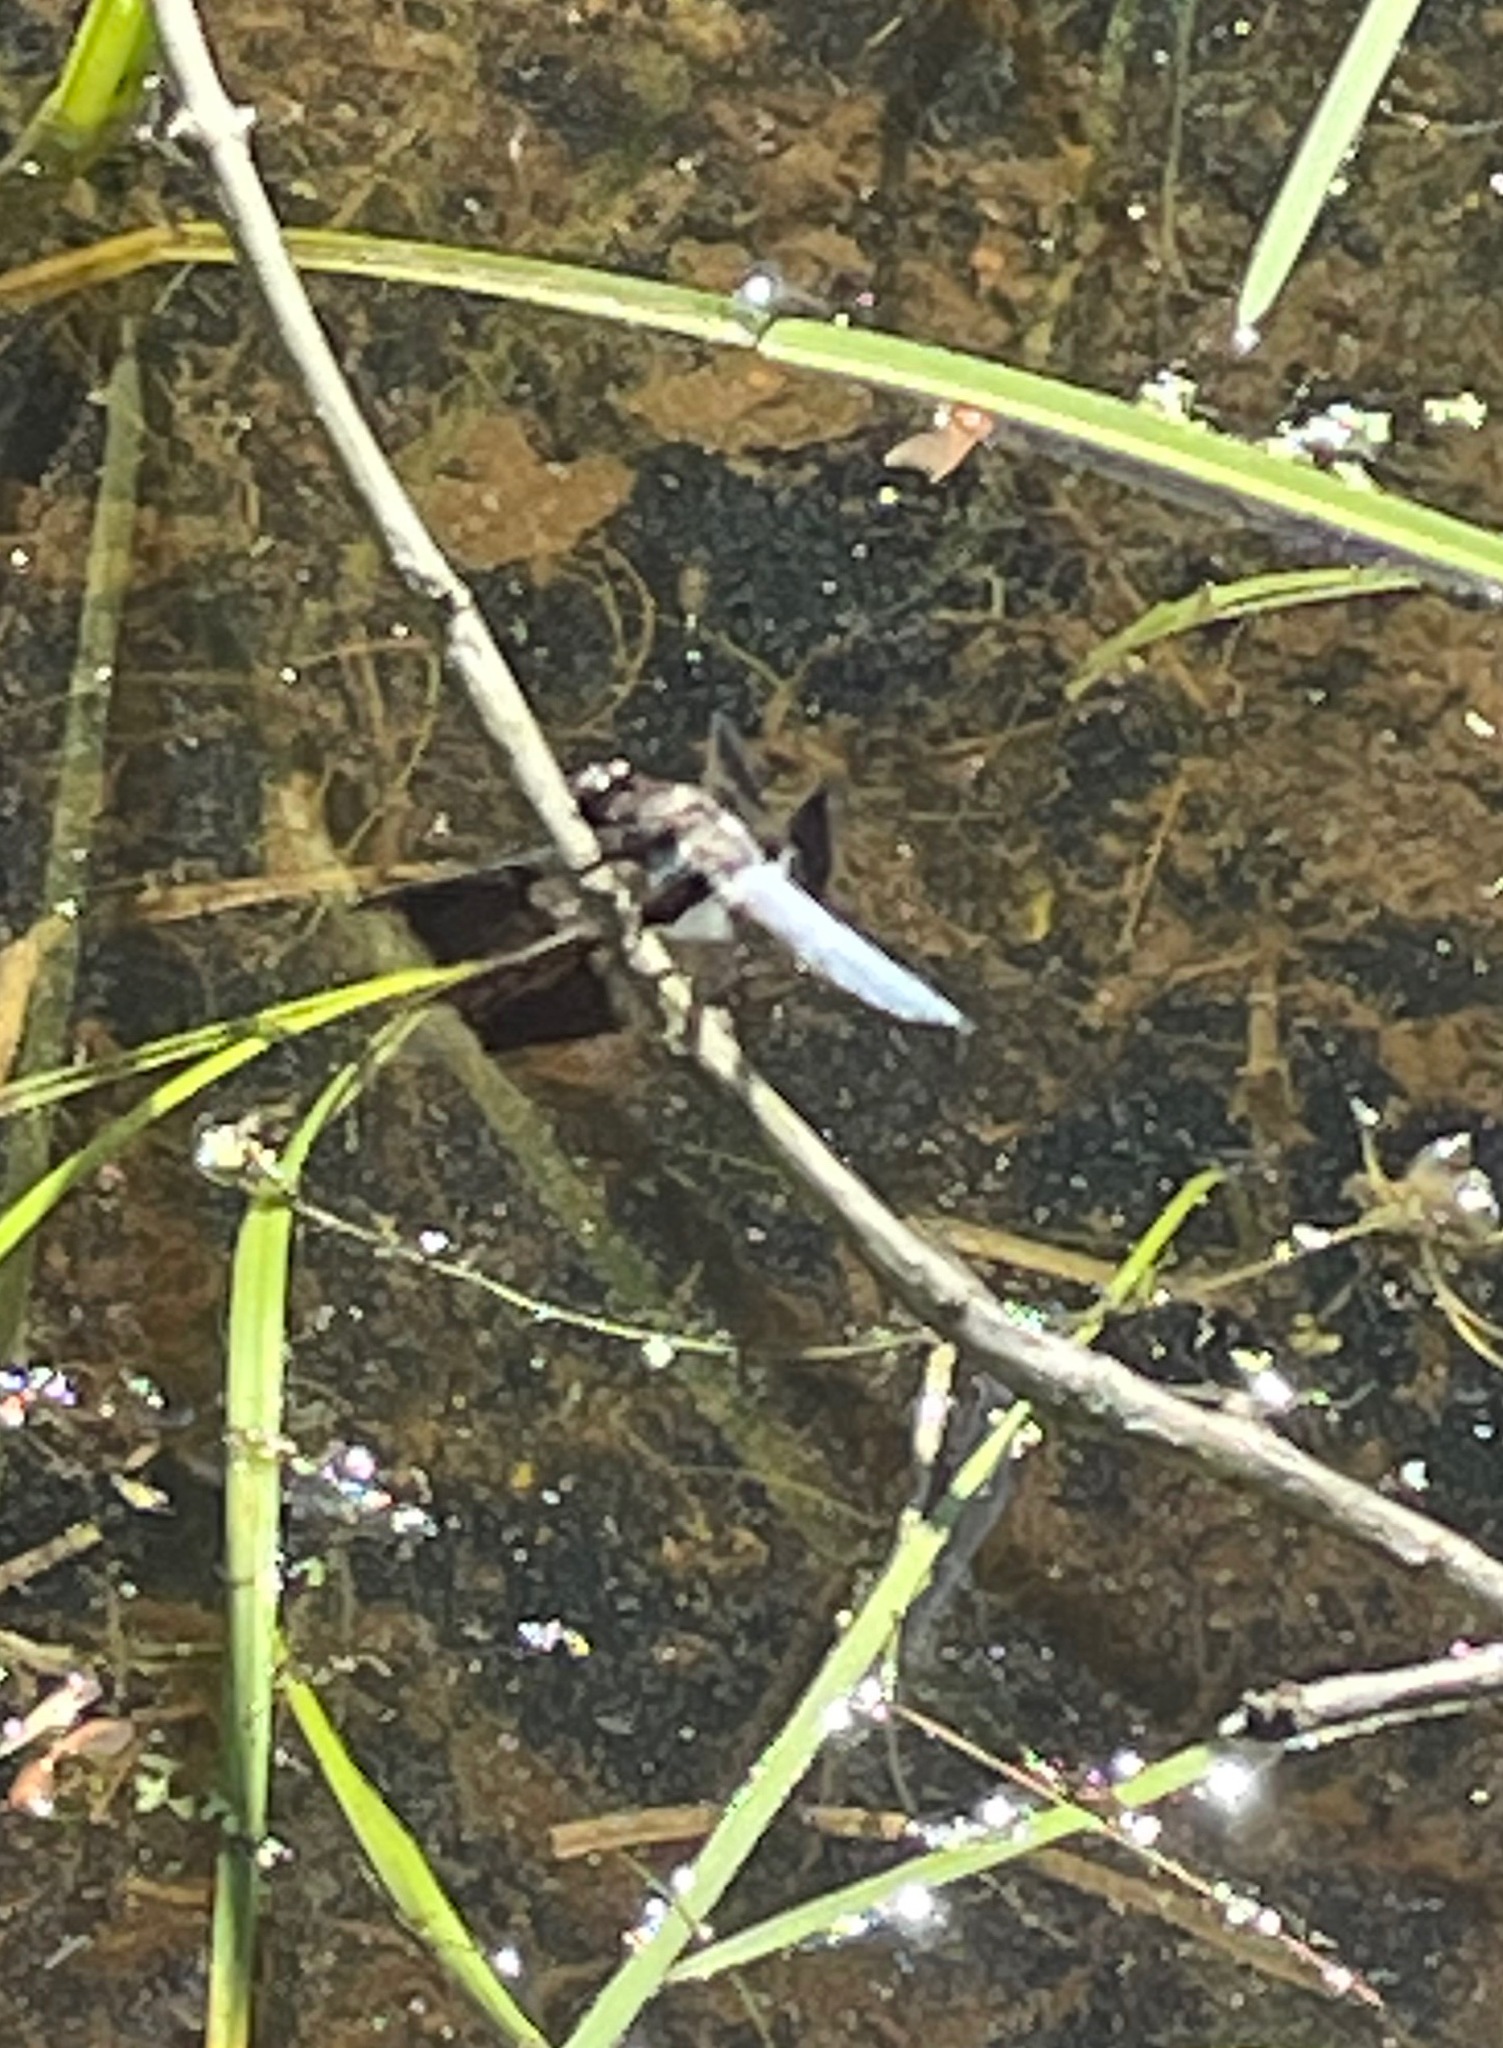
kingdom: Animalia
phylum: Arthropoda
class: Insecta
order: Odonata
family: Libellulidae
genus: Plathemis
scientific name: Plathemis lydia
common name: Common whitetail
